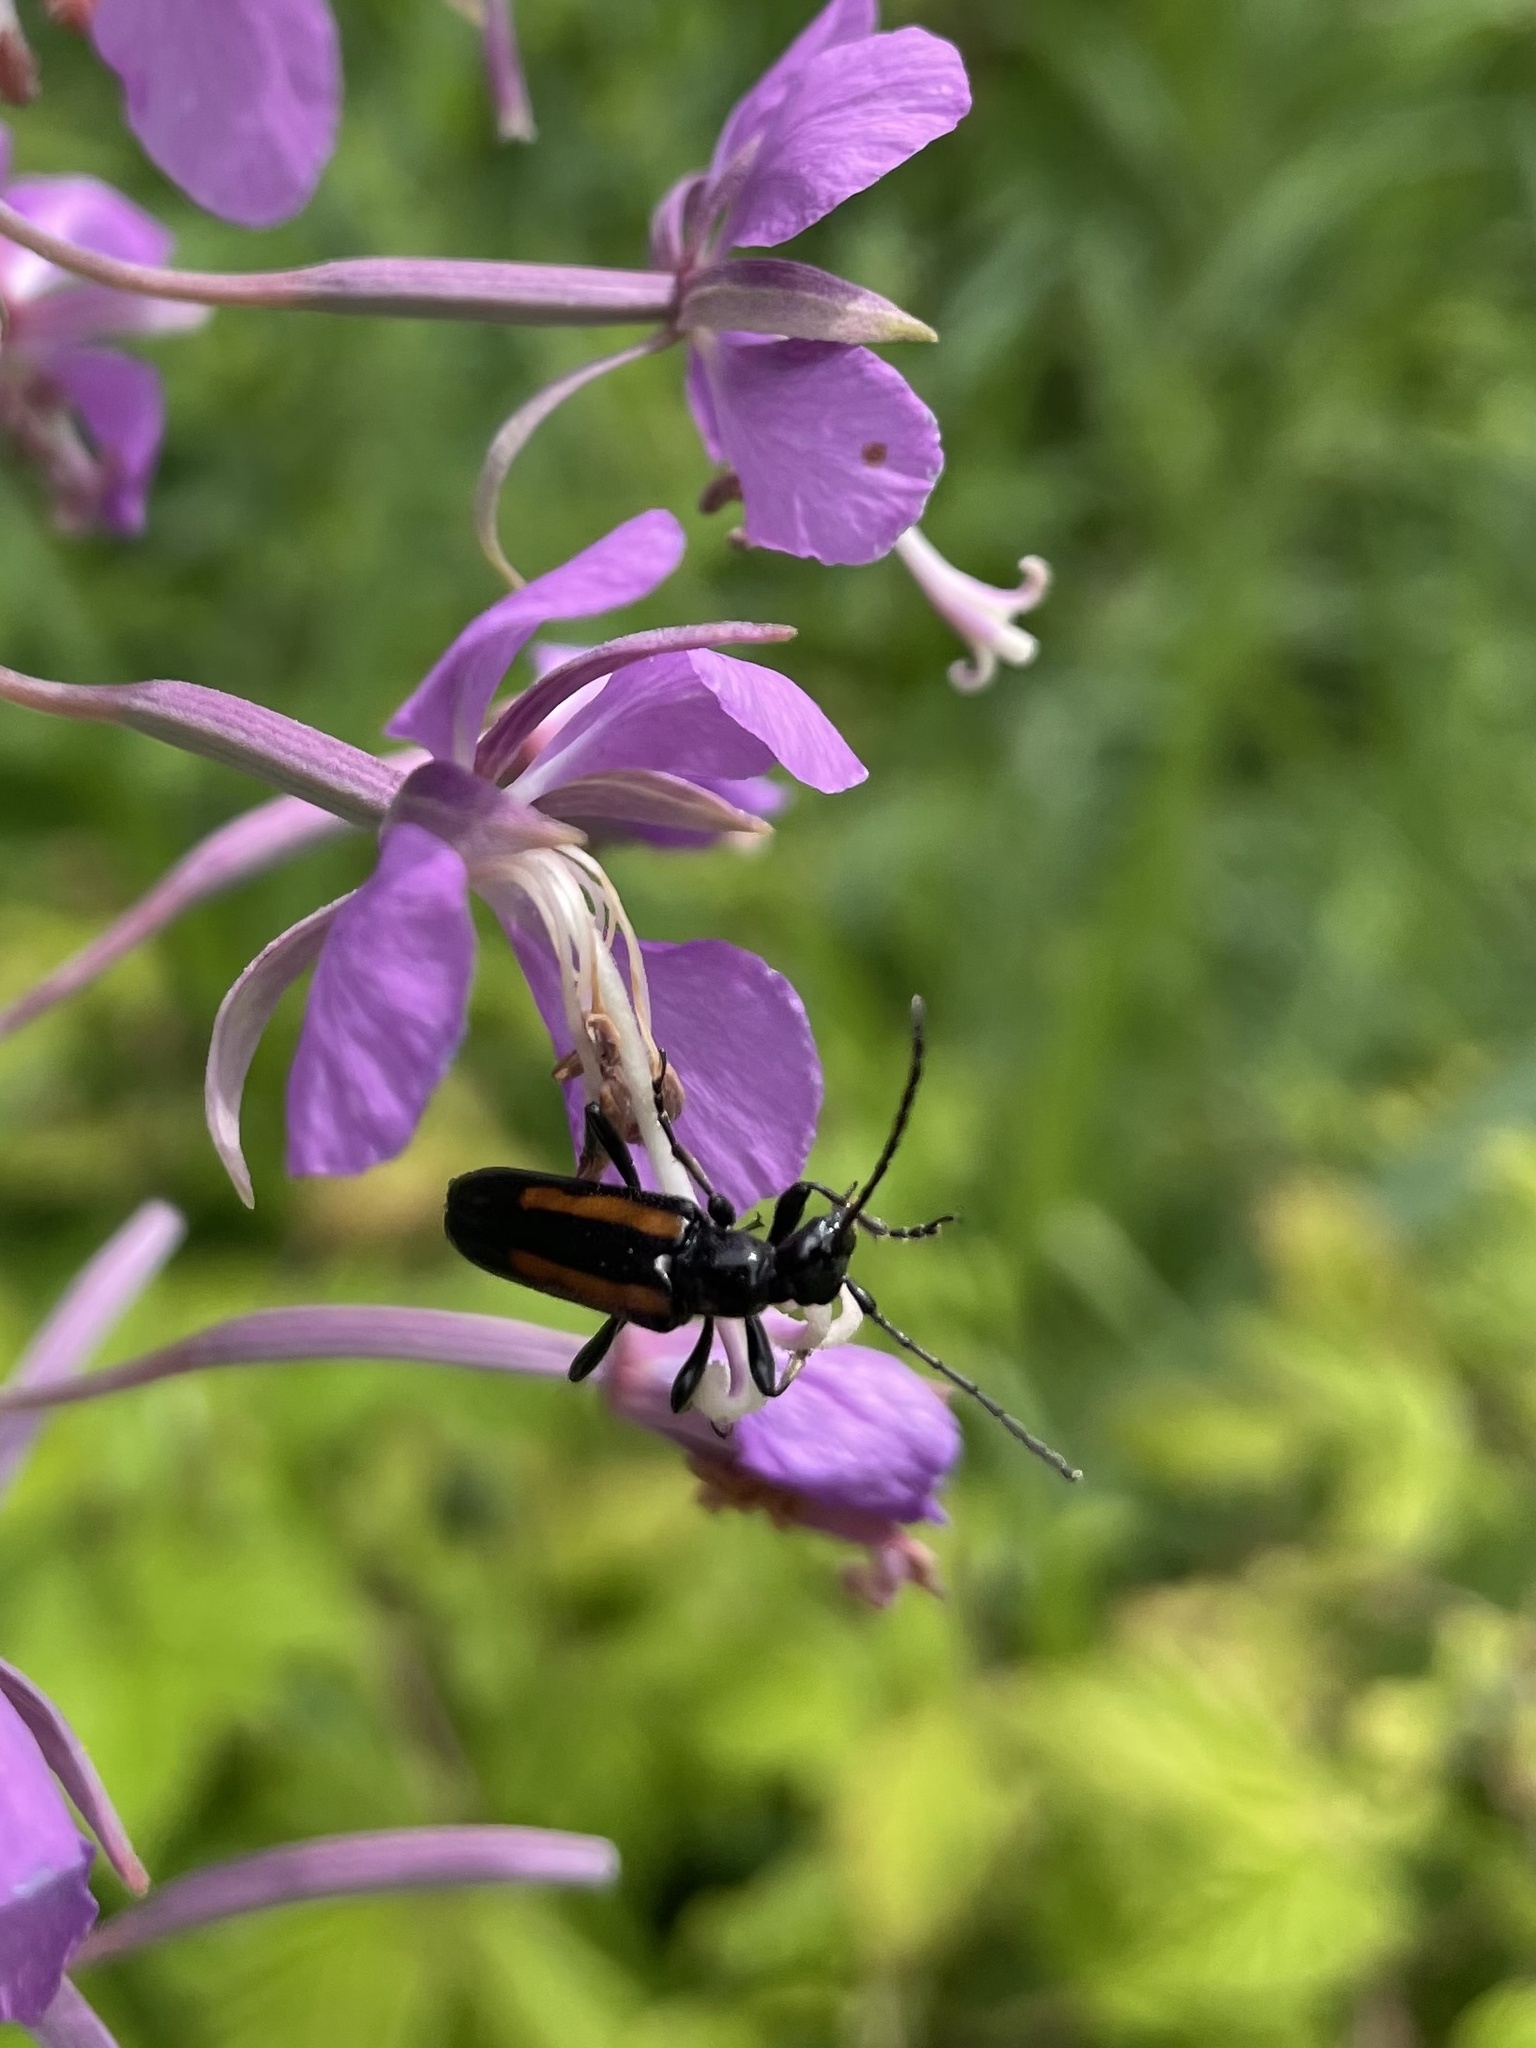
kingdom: Animalia
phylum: Arthropoda
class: Insecta
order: Coleoptera
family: Cerambycidae
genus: Strangalepta
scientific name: Strangalepta abbreviata
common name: Strangalepta flower longhorn beetle
